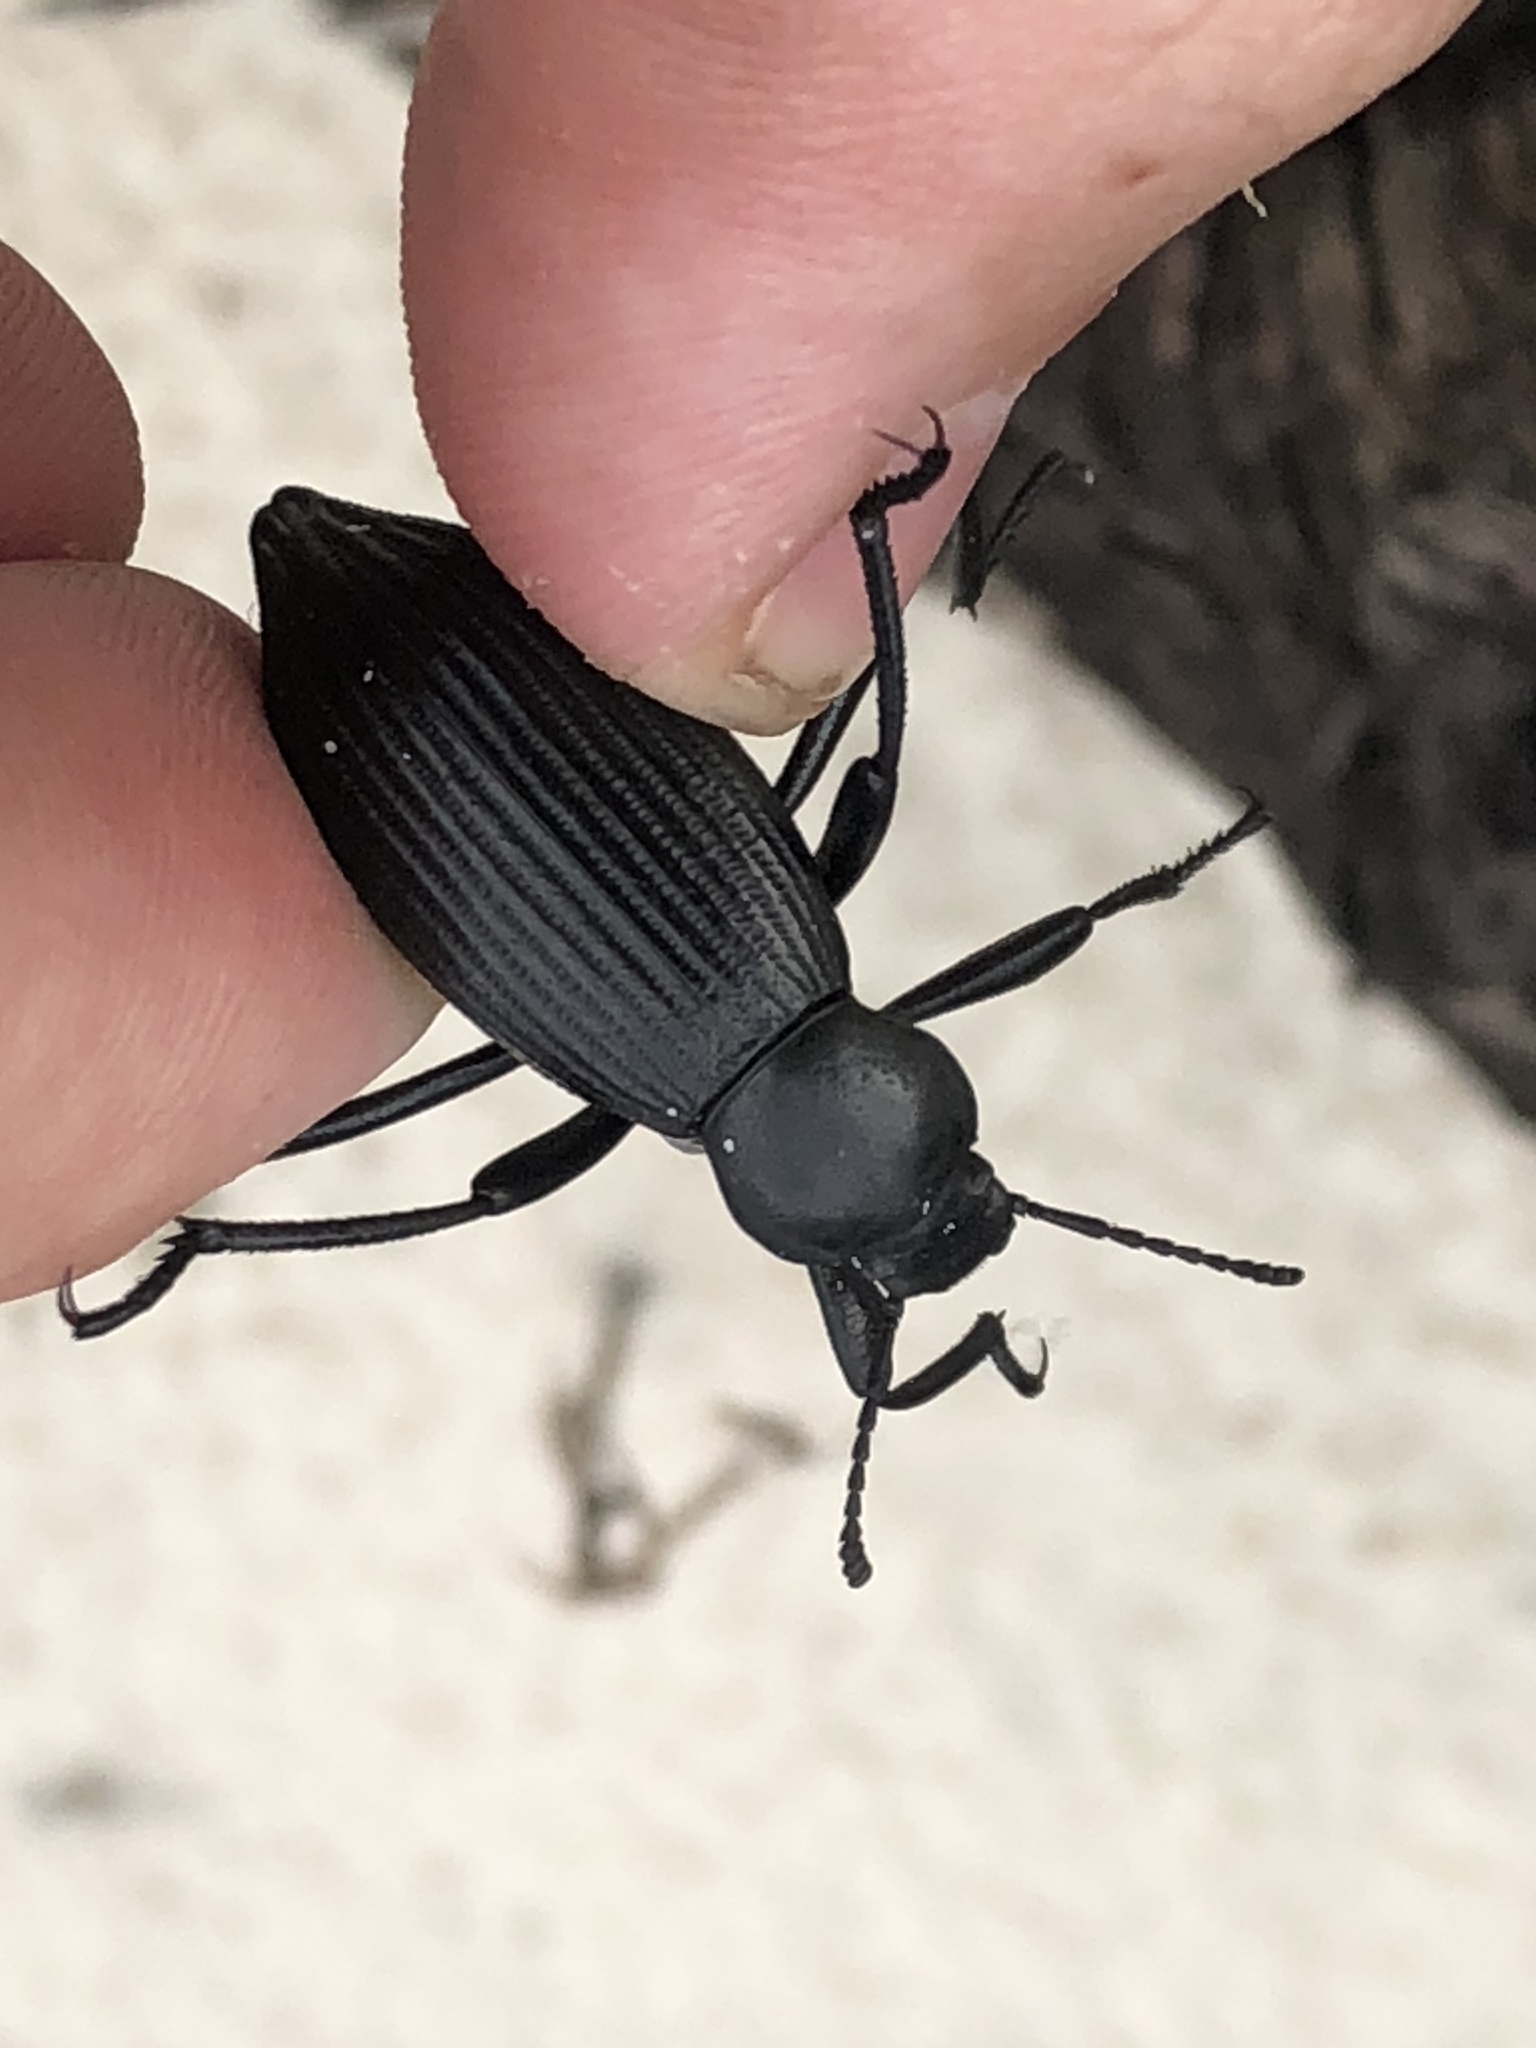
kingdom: Animalia
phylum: Arthropoda
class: Insecta
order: Coleoptera
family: Tenebrionidae
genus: Eleodes
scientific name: Eleodes hispilabris
